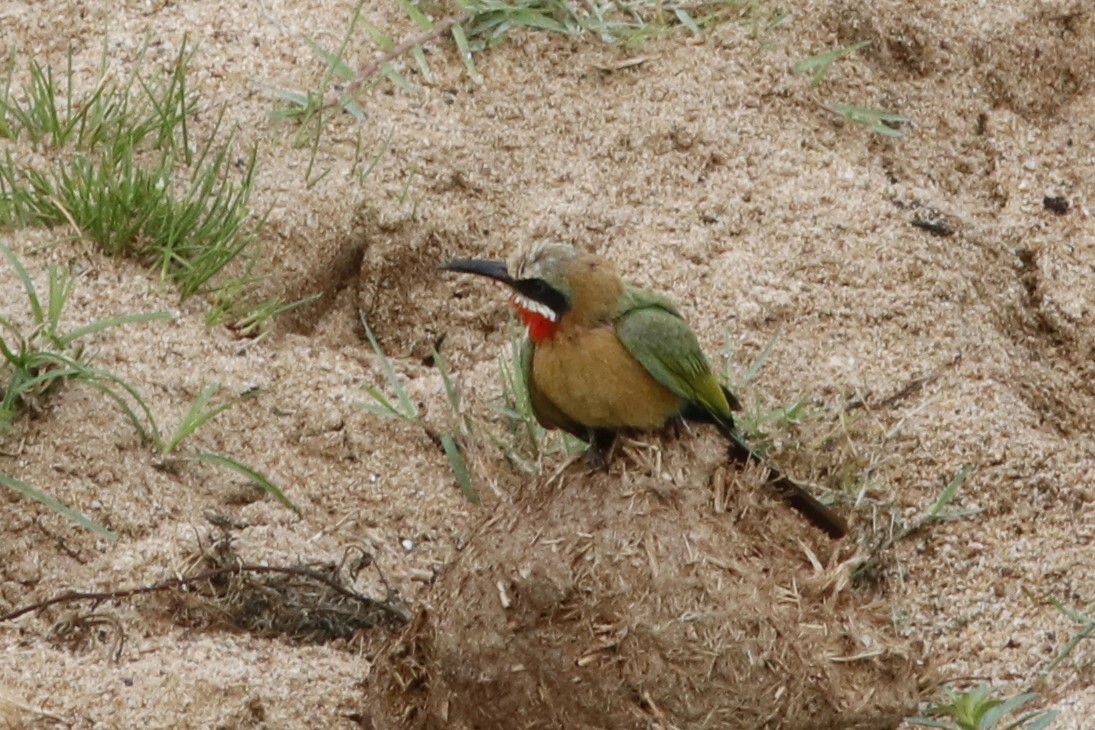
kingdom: Animalia
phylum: Chordata
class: Aves
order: Coraciiformes
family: Meropidae
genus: Merops
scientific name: Merops bullockoides
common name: White-fronted bee-eater
